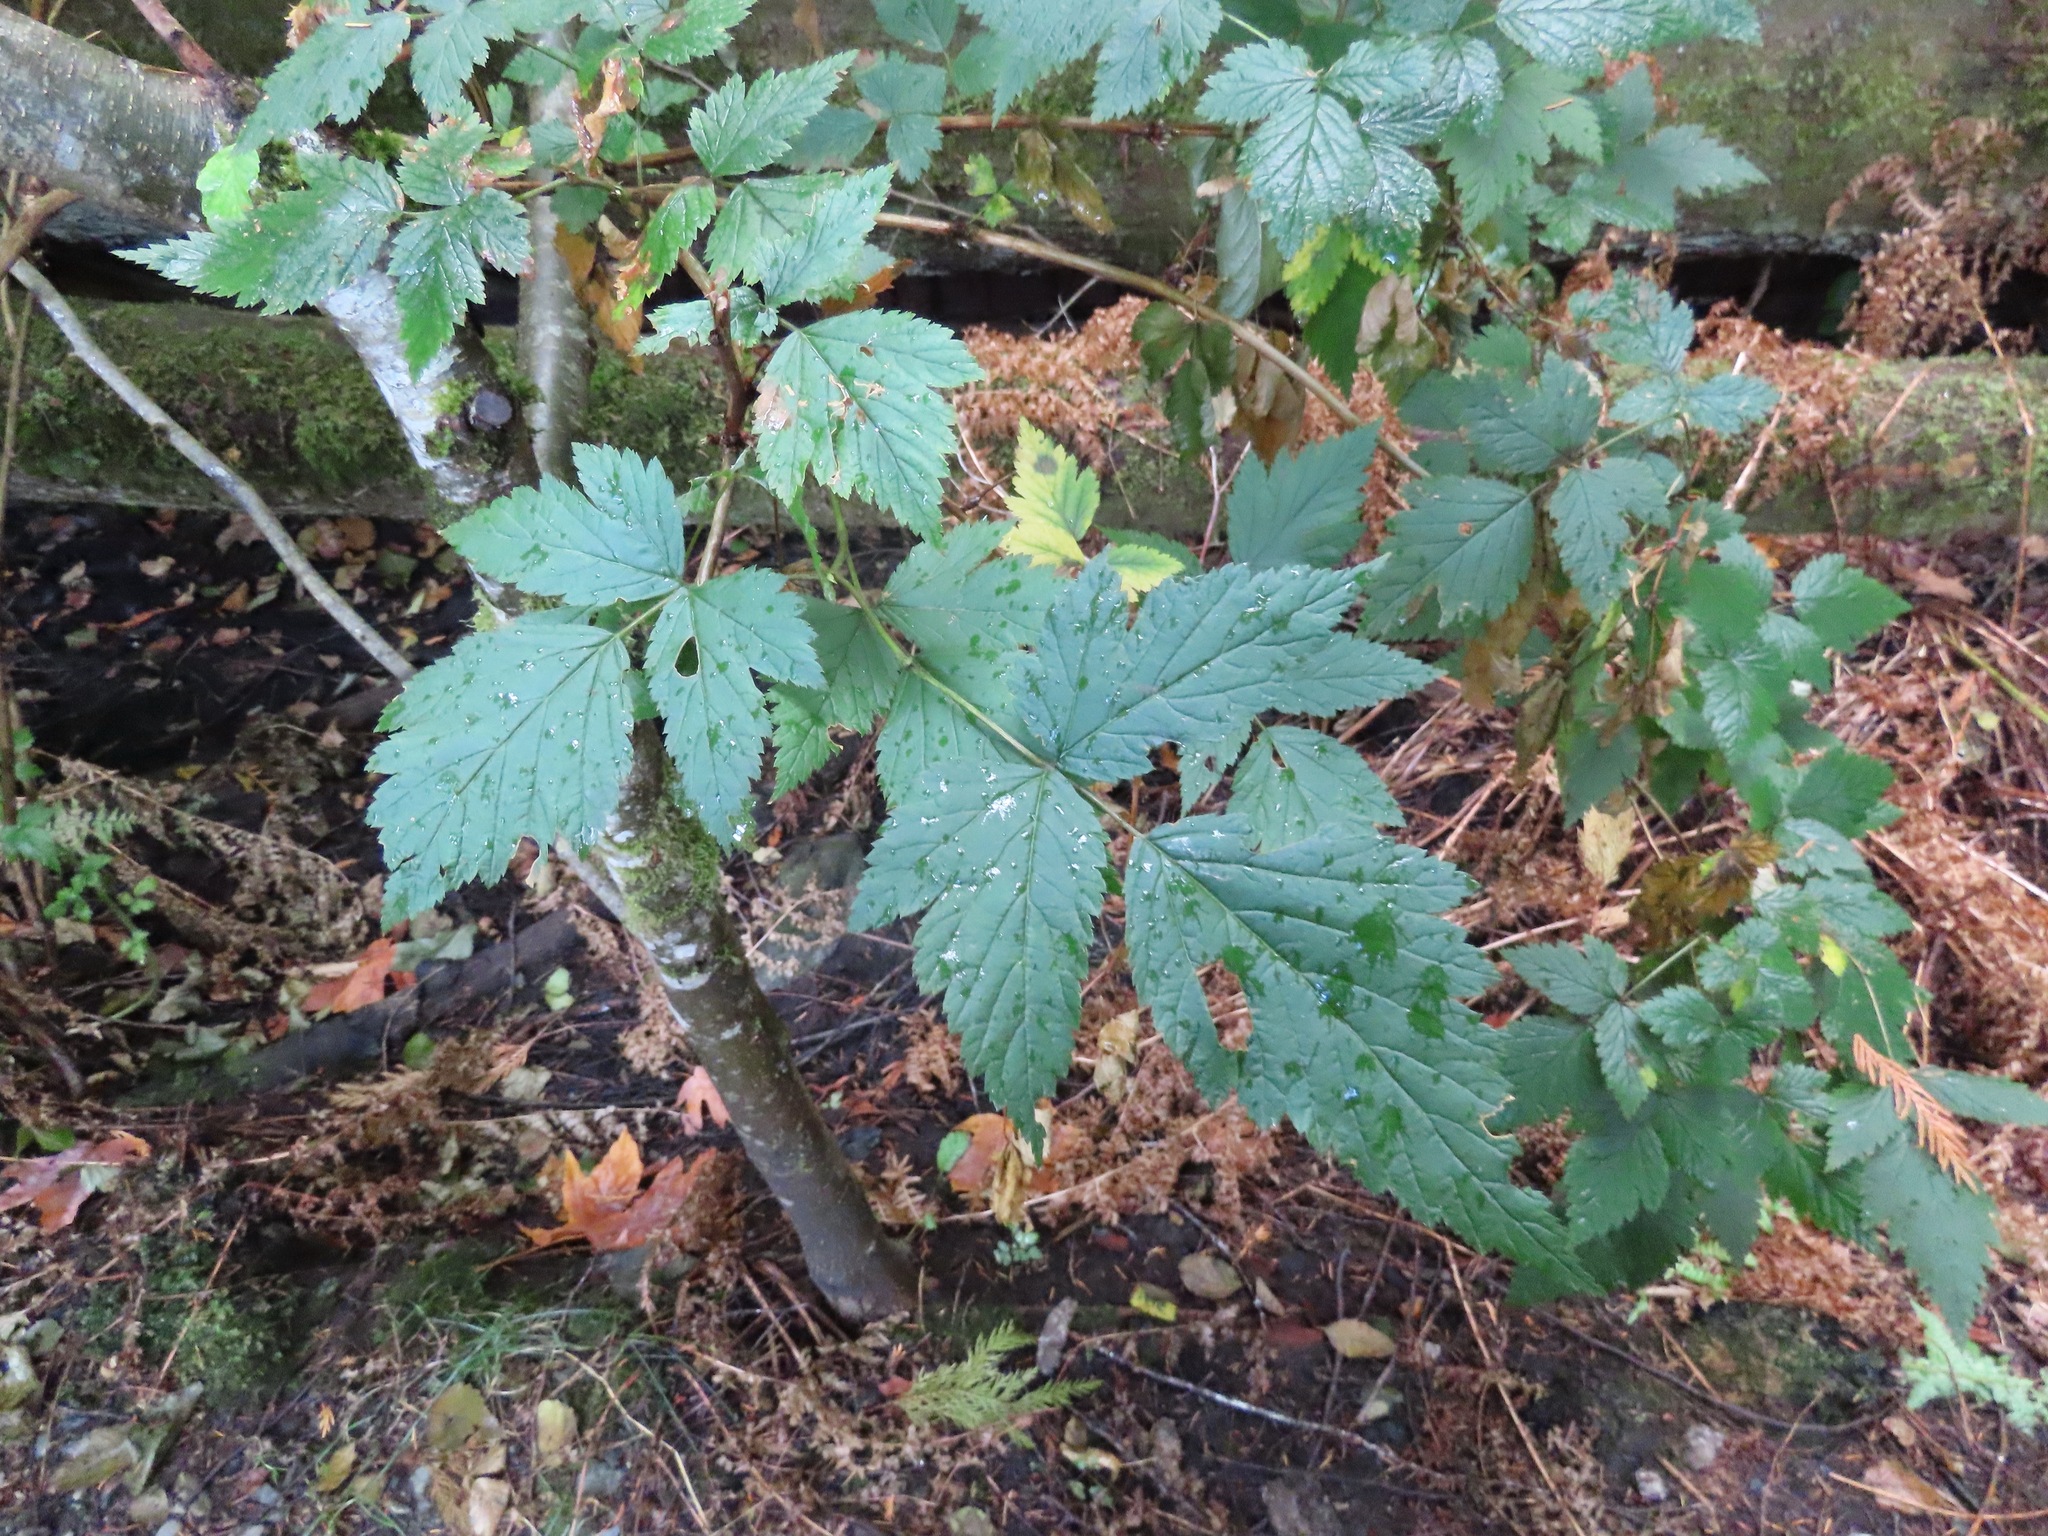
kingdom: Plantae
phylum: Tracheophyta
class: Magnoliopsida
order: Rosales
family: Rosaceae
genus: Rubus
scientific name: Rubus spectabilis
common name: Salmonberry
